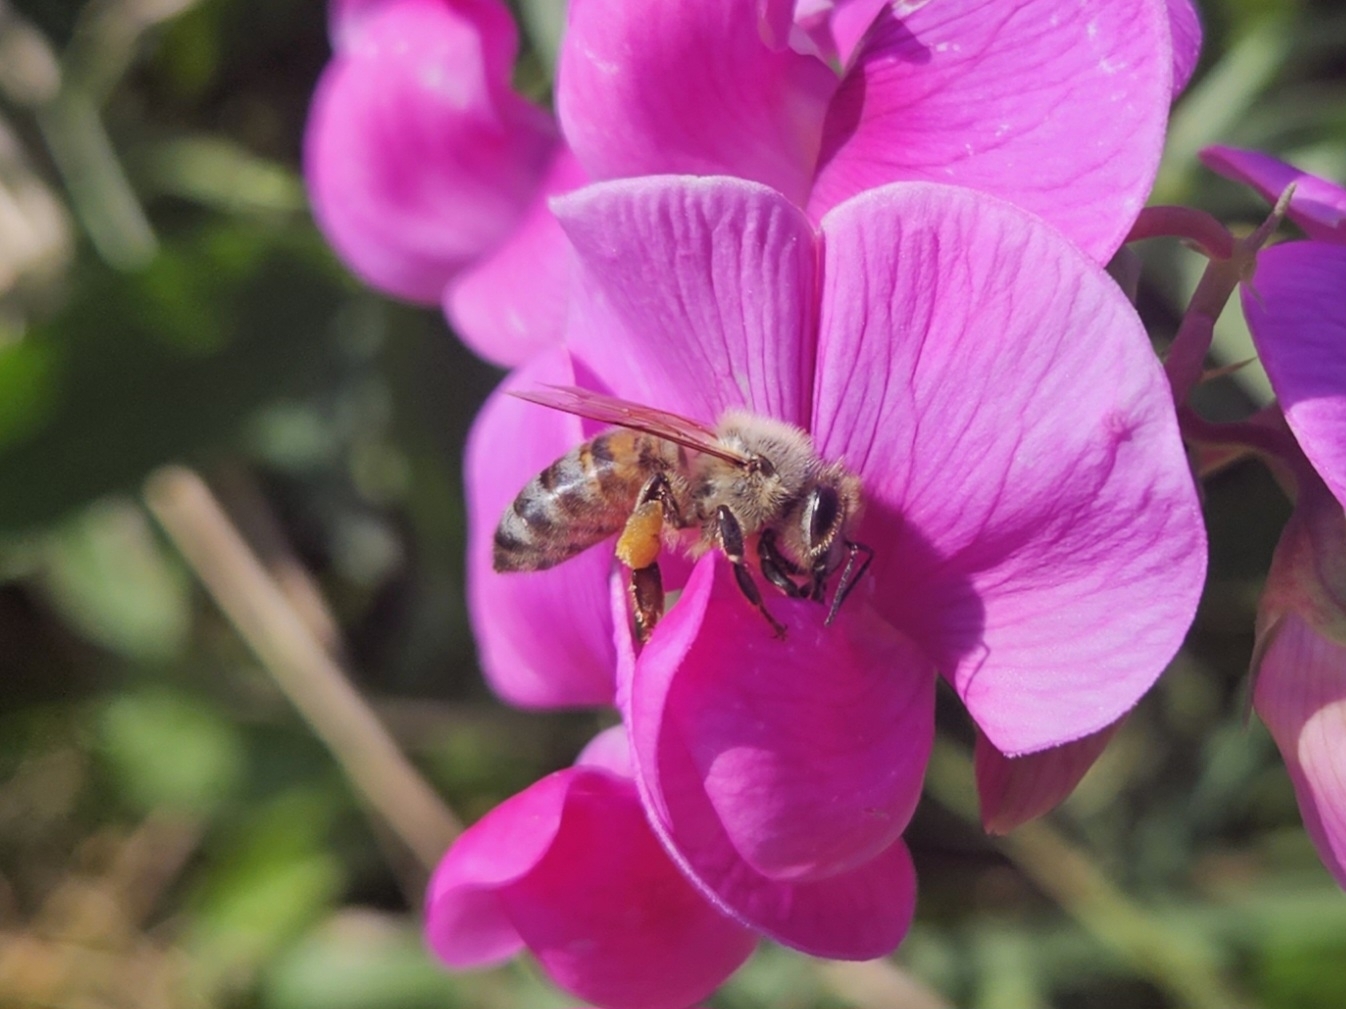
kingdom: Animalia
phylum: Arthropoda
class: Insecta
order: Hymenoptera
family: Apidae
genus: Apis
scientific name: Apis mellifera
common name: Honey bee
